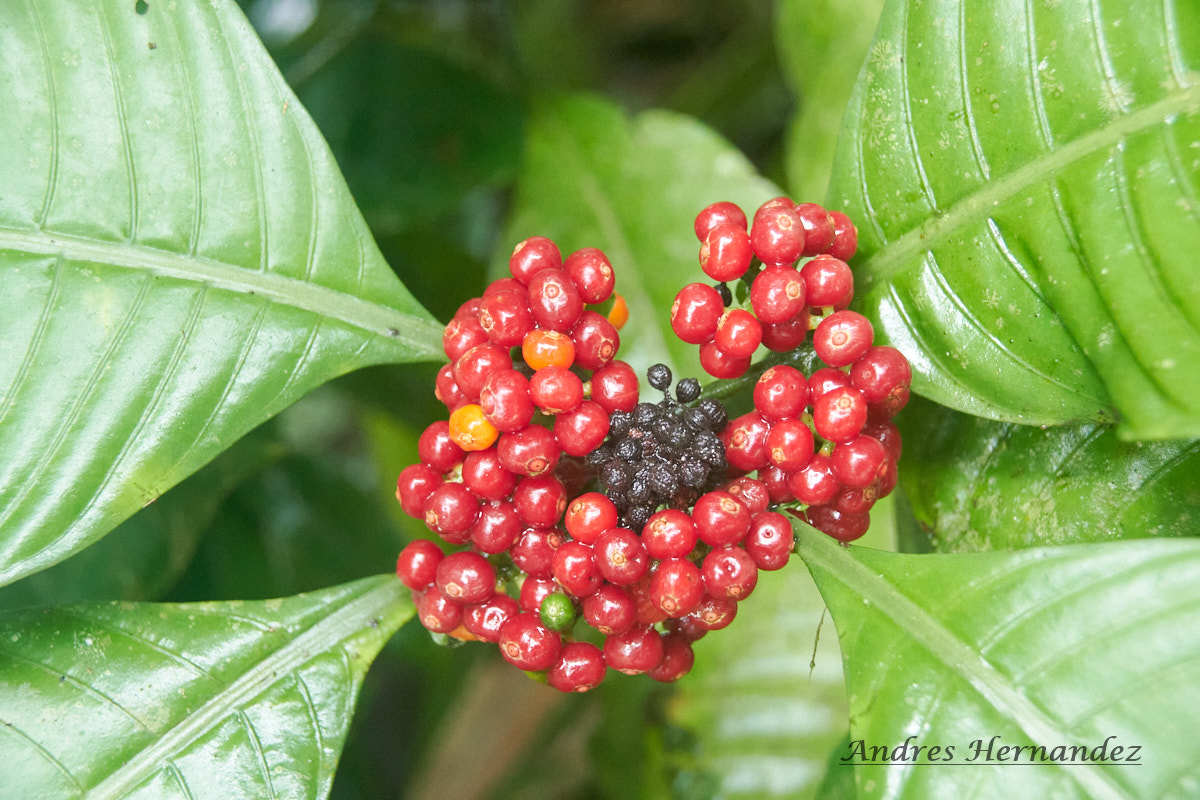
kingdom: Plantae
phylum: Tracheophyta
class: Magnoliopsida
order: Gentianales
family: Rubiaceae
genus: Psychotria
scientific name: Psychotria limonensis
